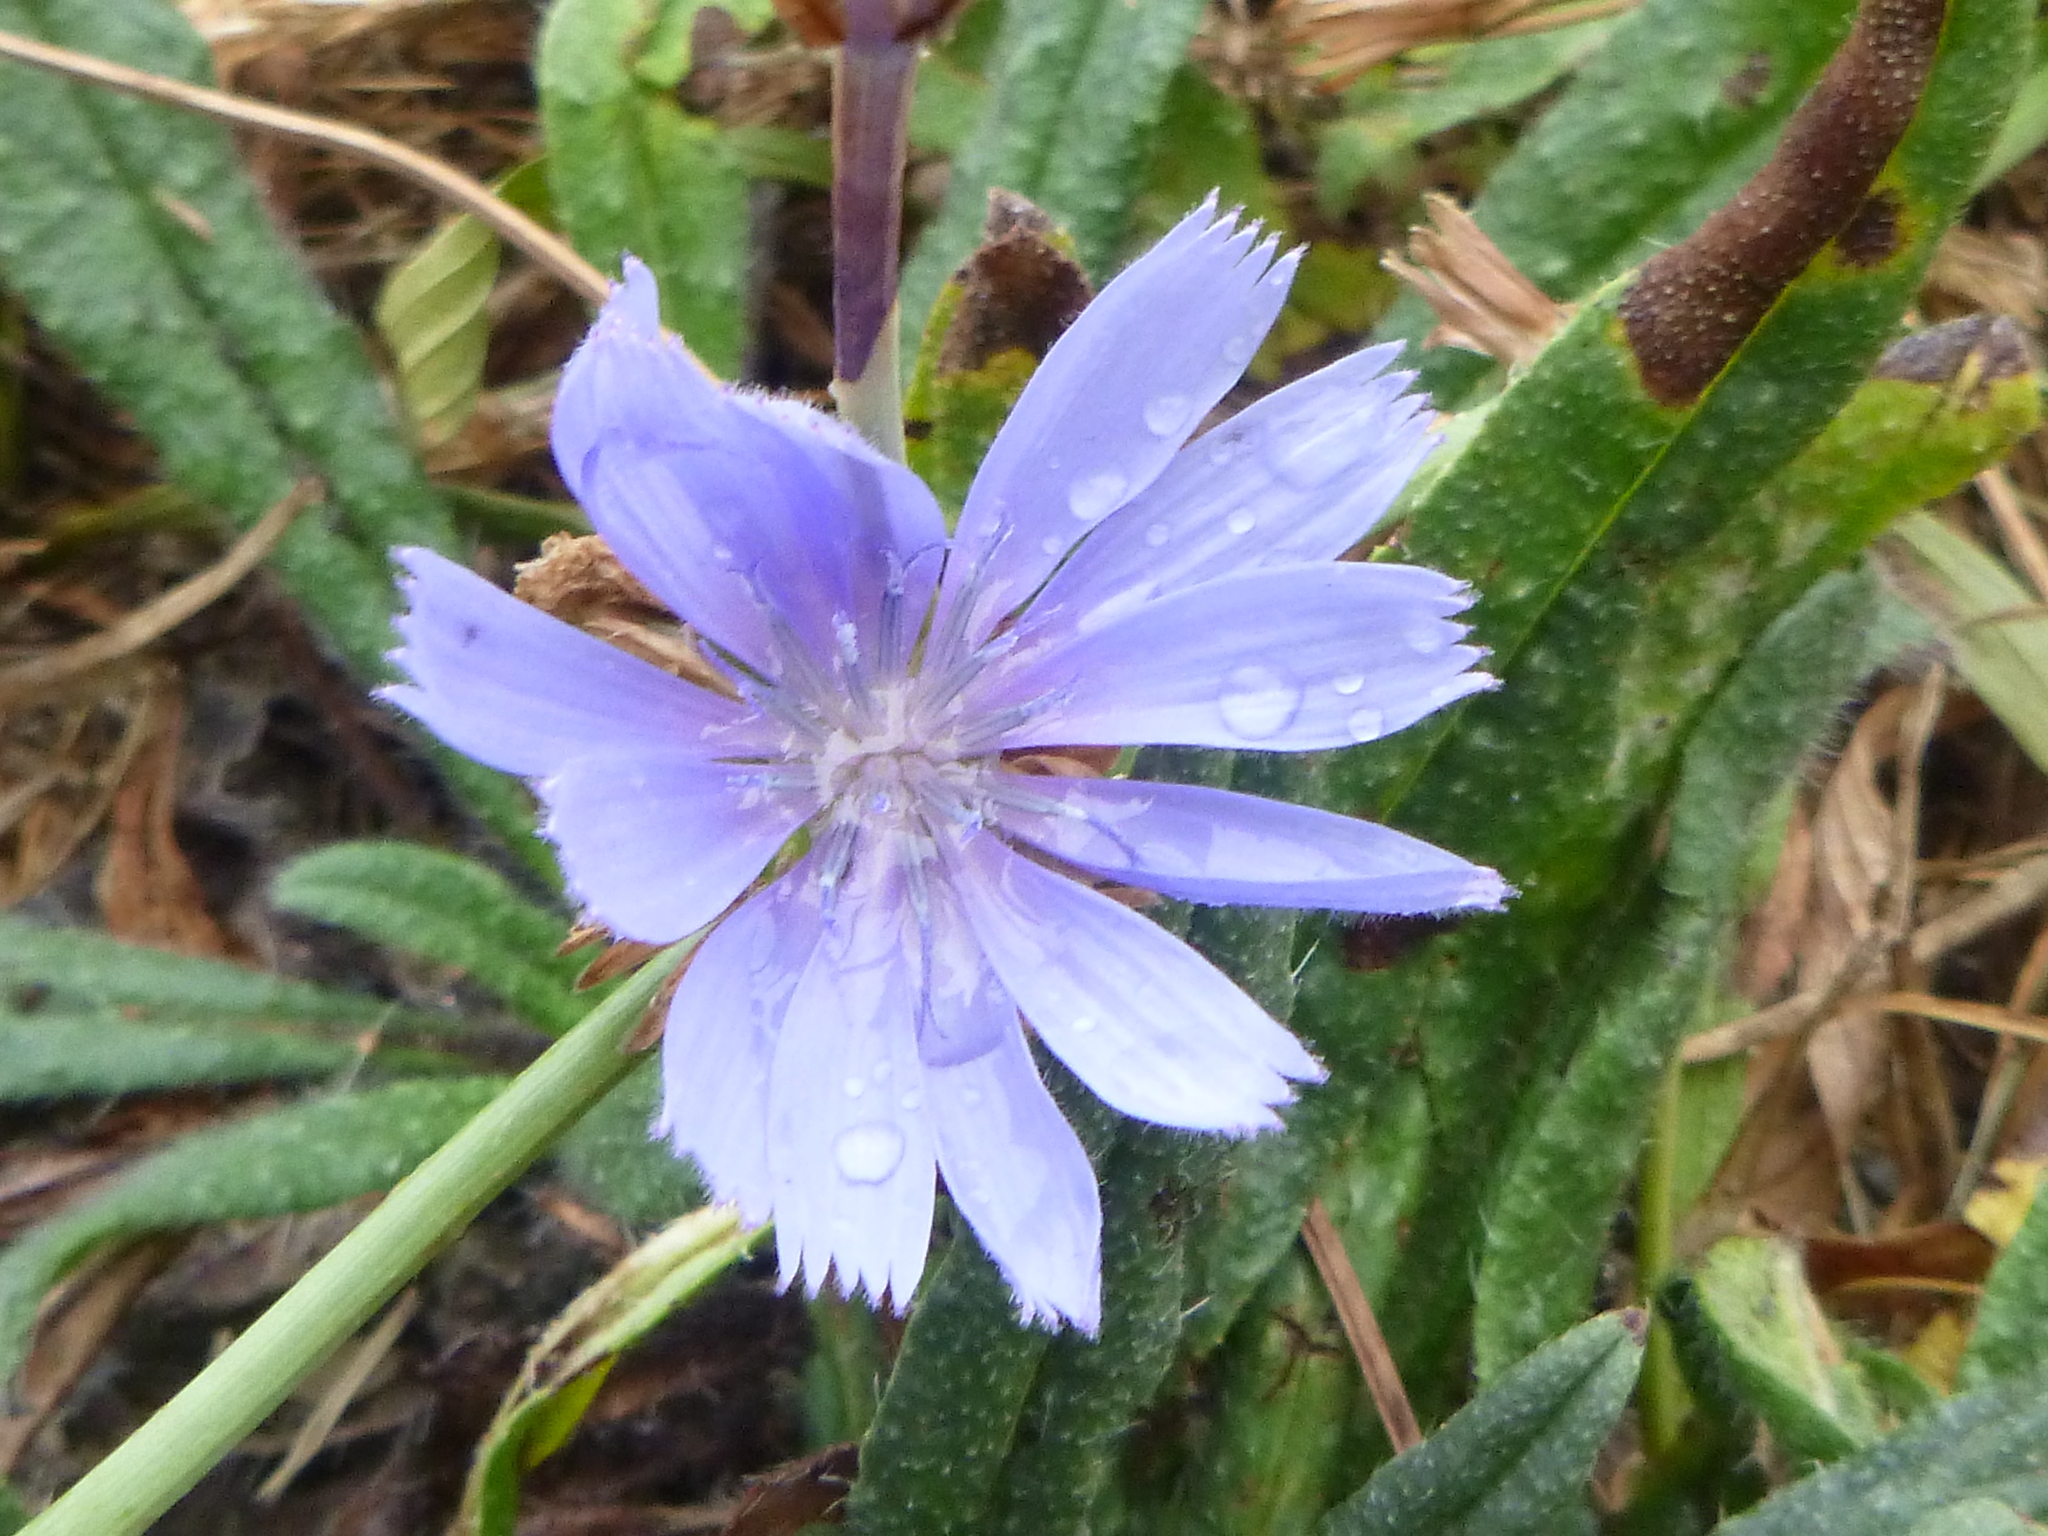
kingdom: Plantae
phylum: Tracheophyta
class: Magnoliopsida
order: Asterales
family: Asteraceae
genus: Cichorium
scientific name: Cichorium intybus
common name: Chicory
